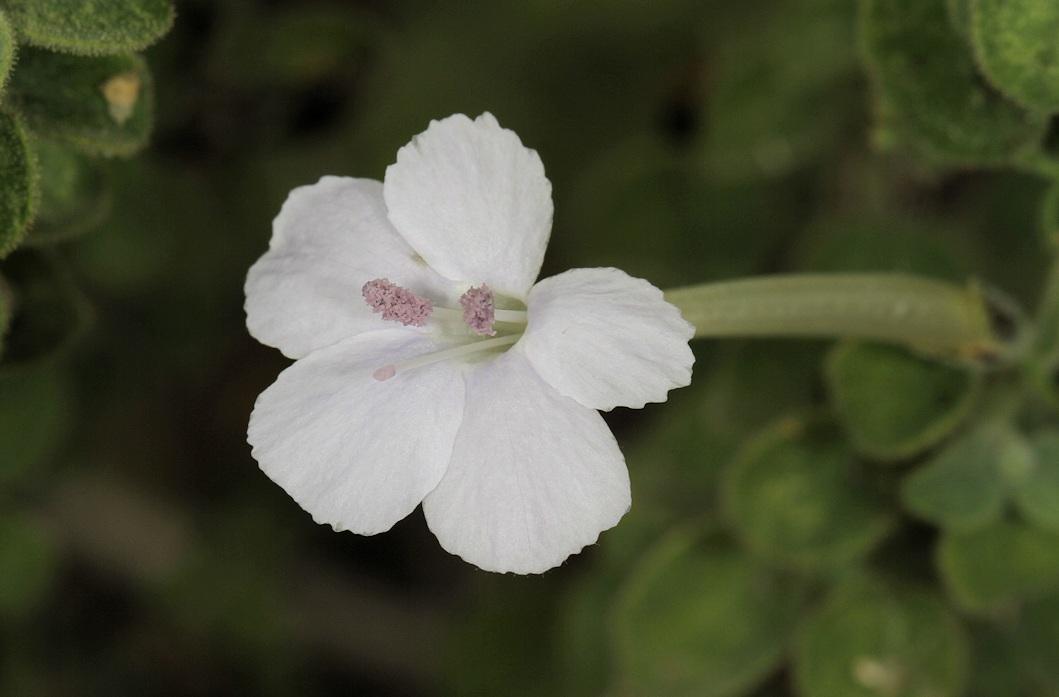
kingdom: Plantae
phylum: Tracheophyta
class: Magnoliopsida
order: Lamiales
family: Acanthaceae
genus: Barleria
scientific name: Barleria heterotricha
